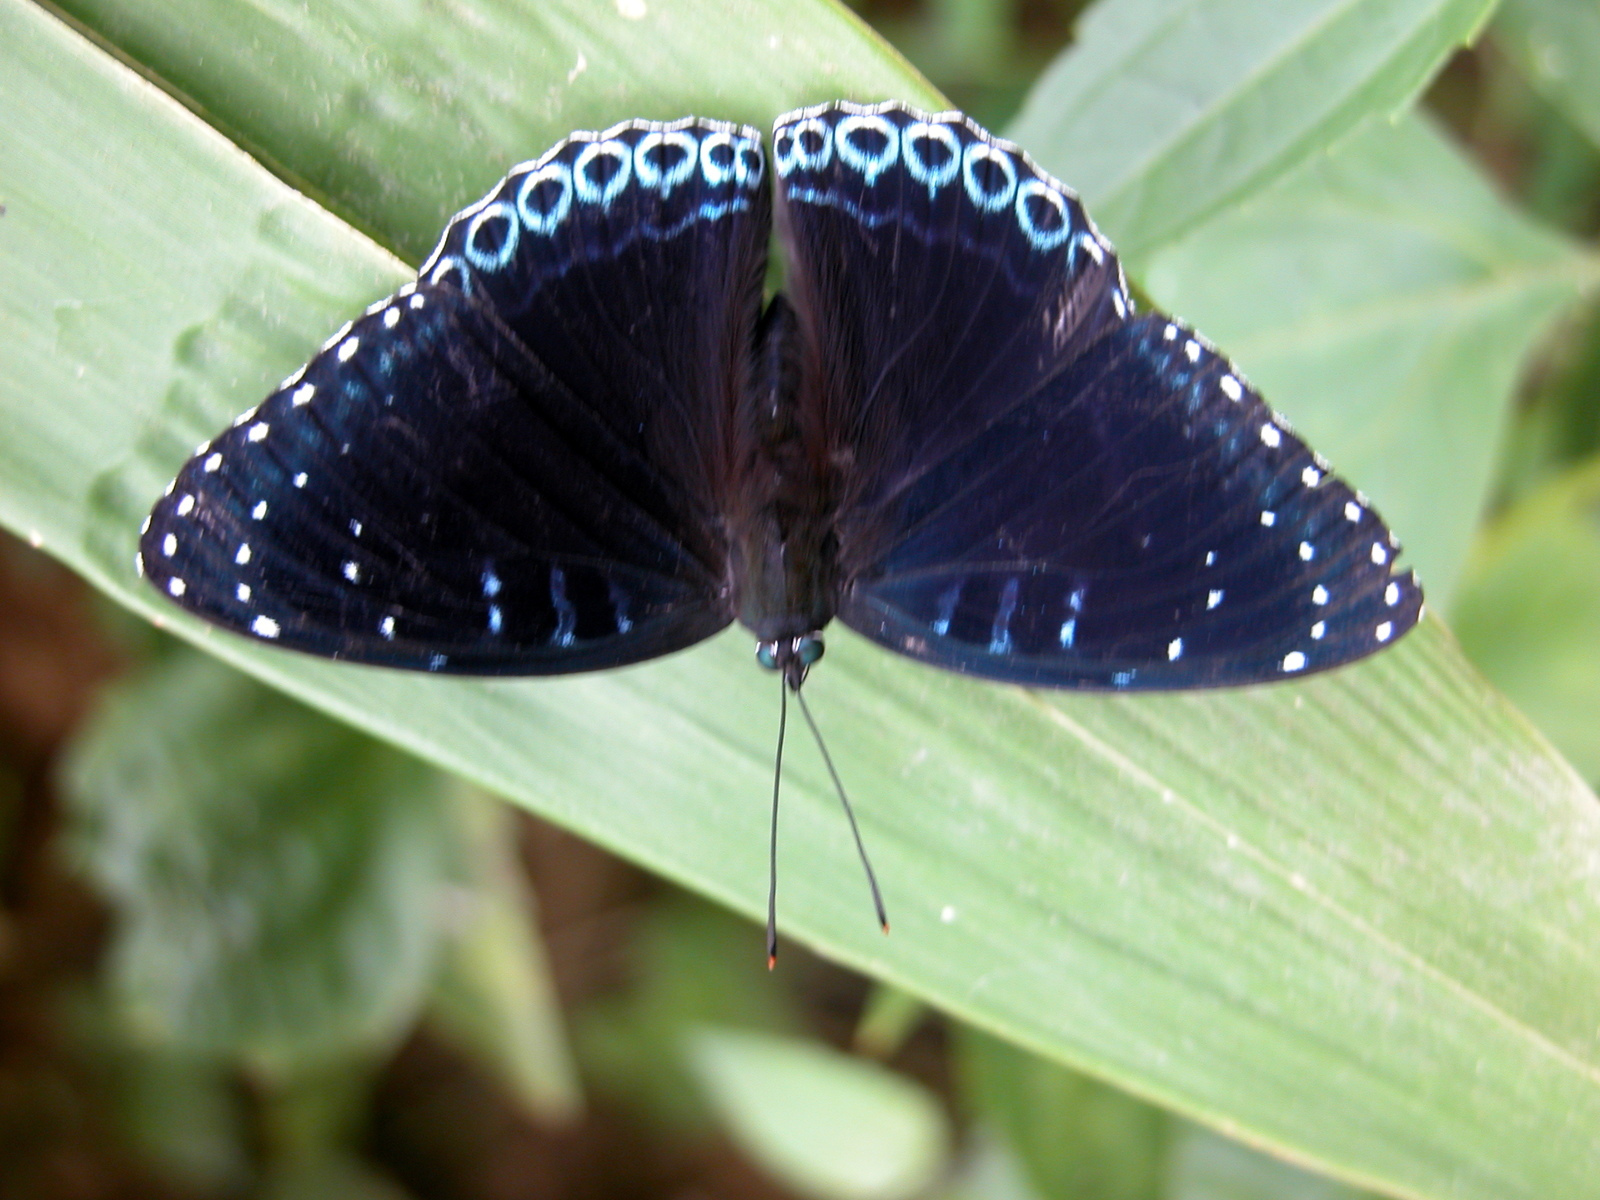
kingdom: Animalia
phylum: Arthropoda
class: Insecta
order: Lepidoptera
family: Nymphalidae
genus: Stibochiona
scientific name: Stibochiona nicea
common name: Popinjay
